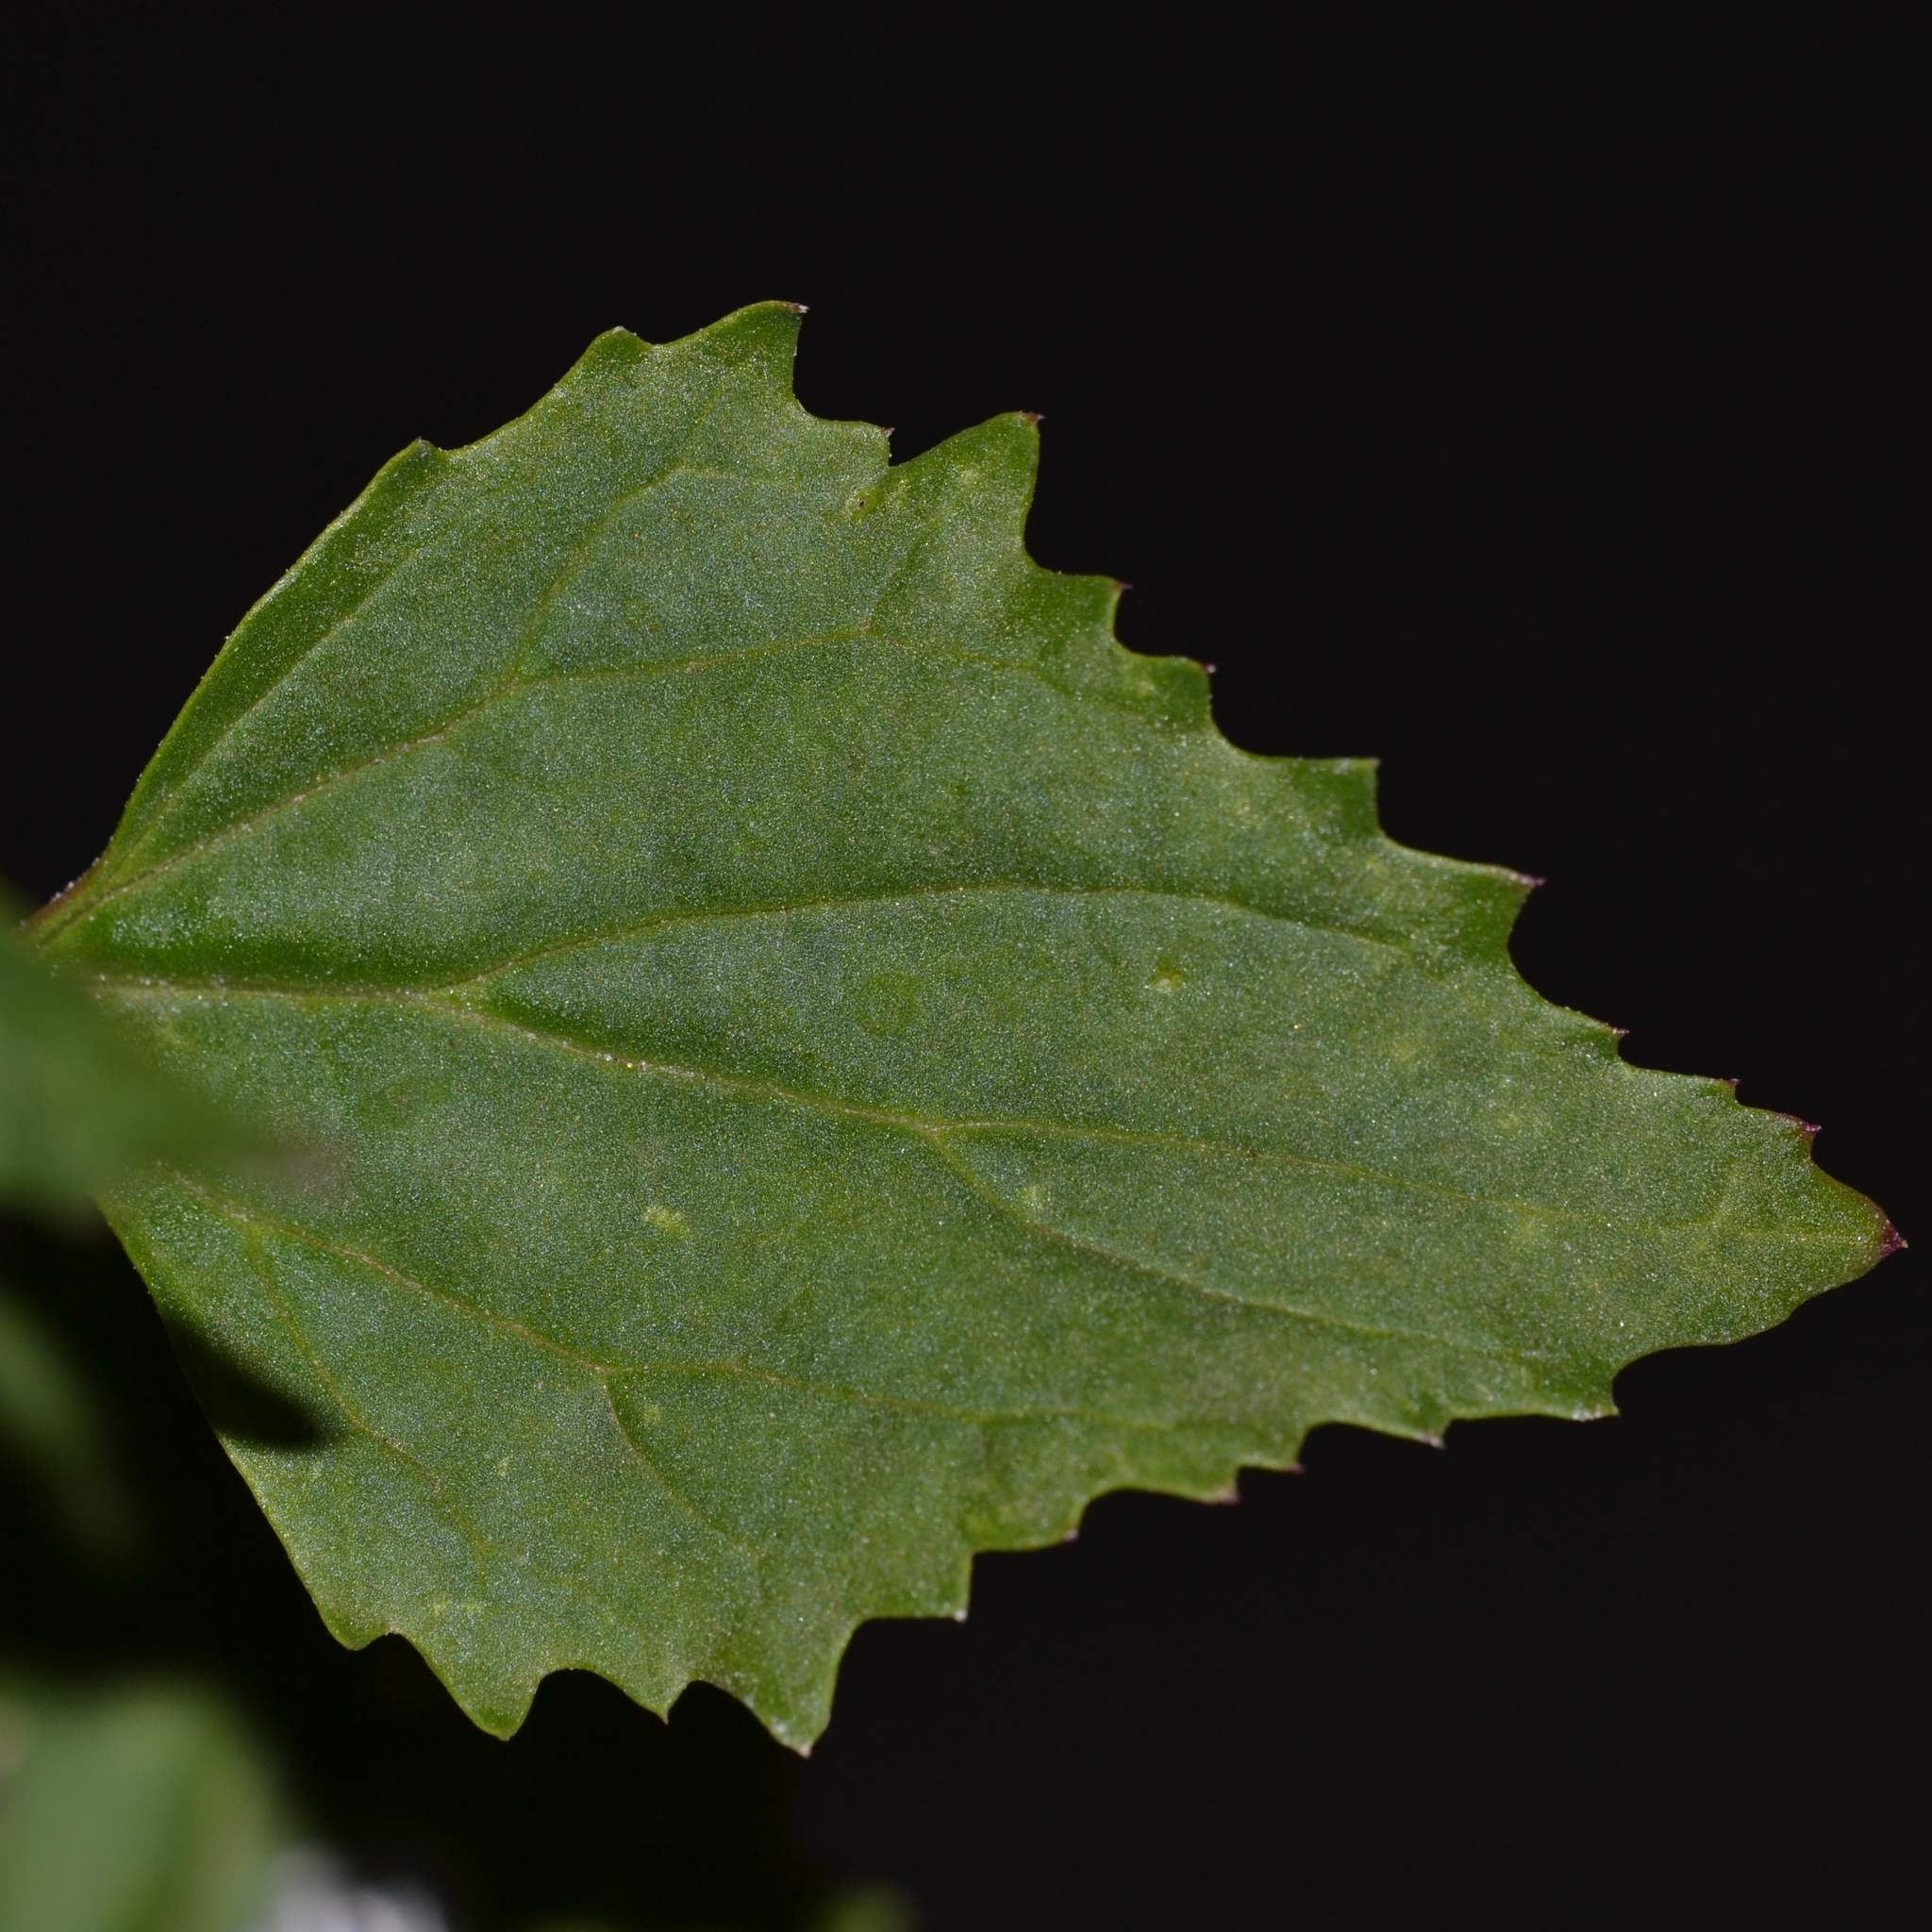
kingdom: Plantae
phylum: Tracheophyta
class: Magnoliopsida
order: Caryophyllales
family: Amaranthaceae
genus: Chenopodiastrum
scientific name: Chenopodiastrum murale
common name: Sowbane
